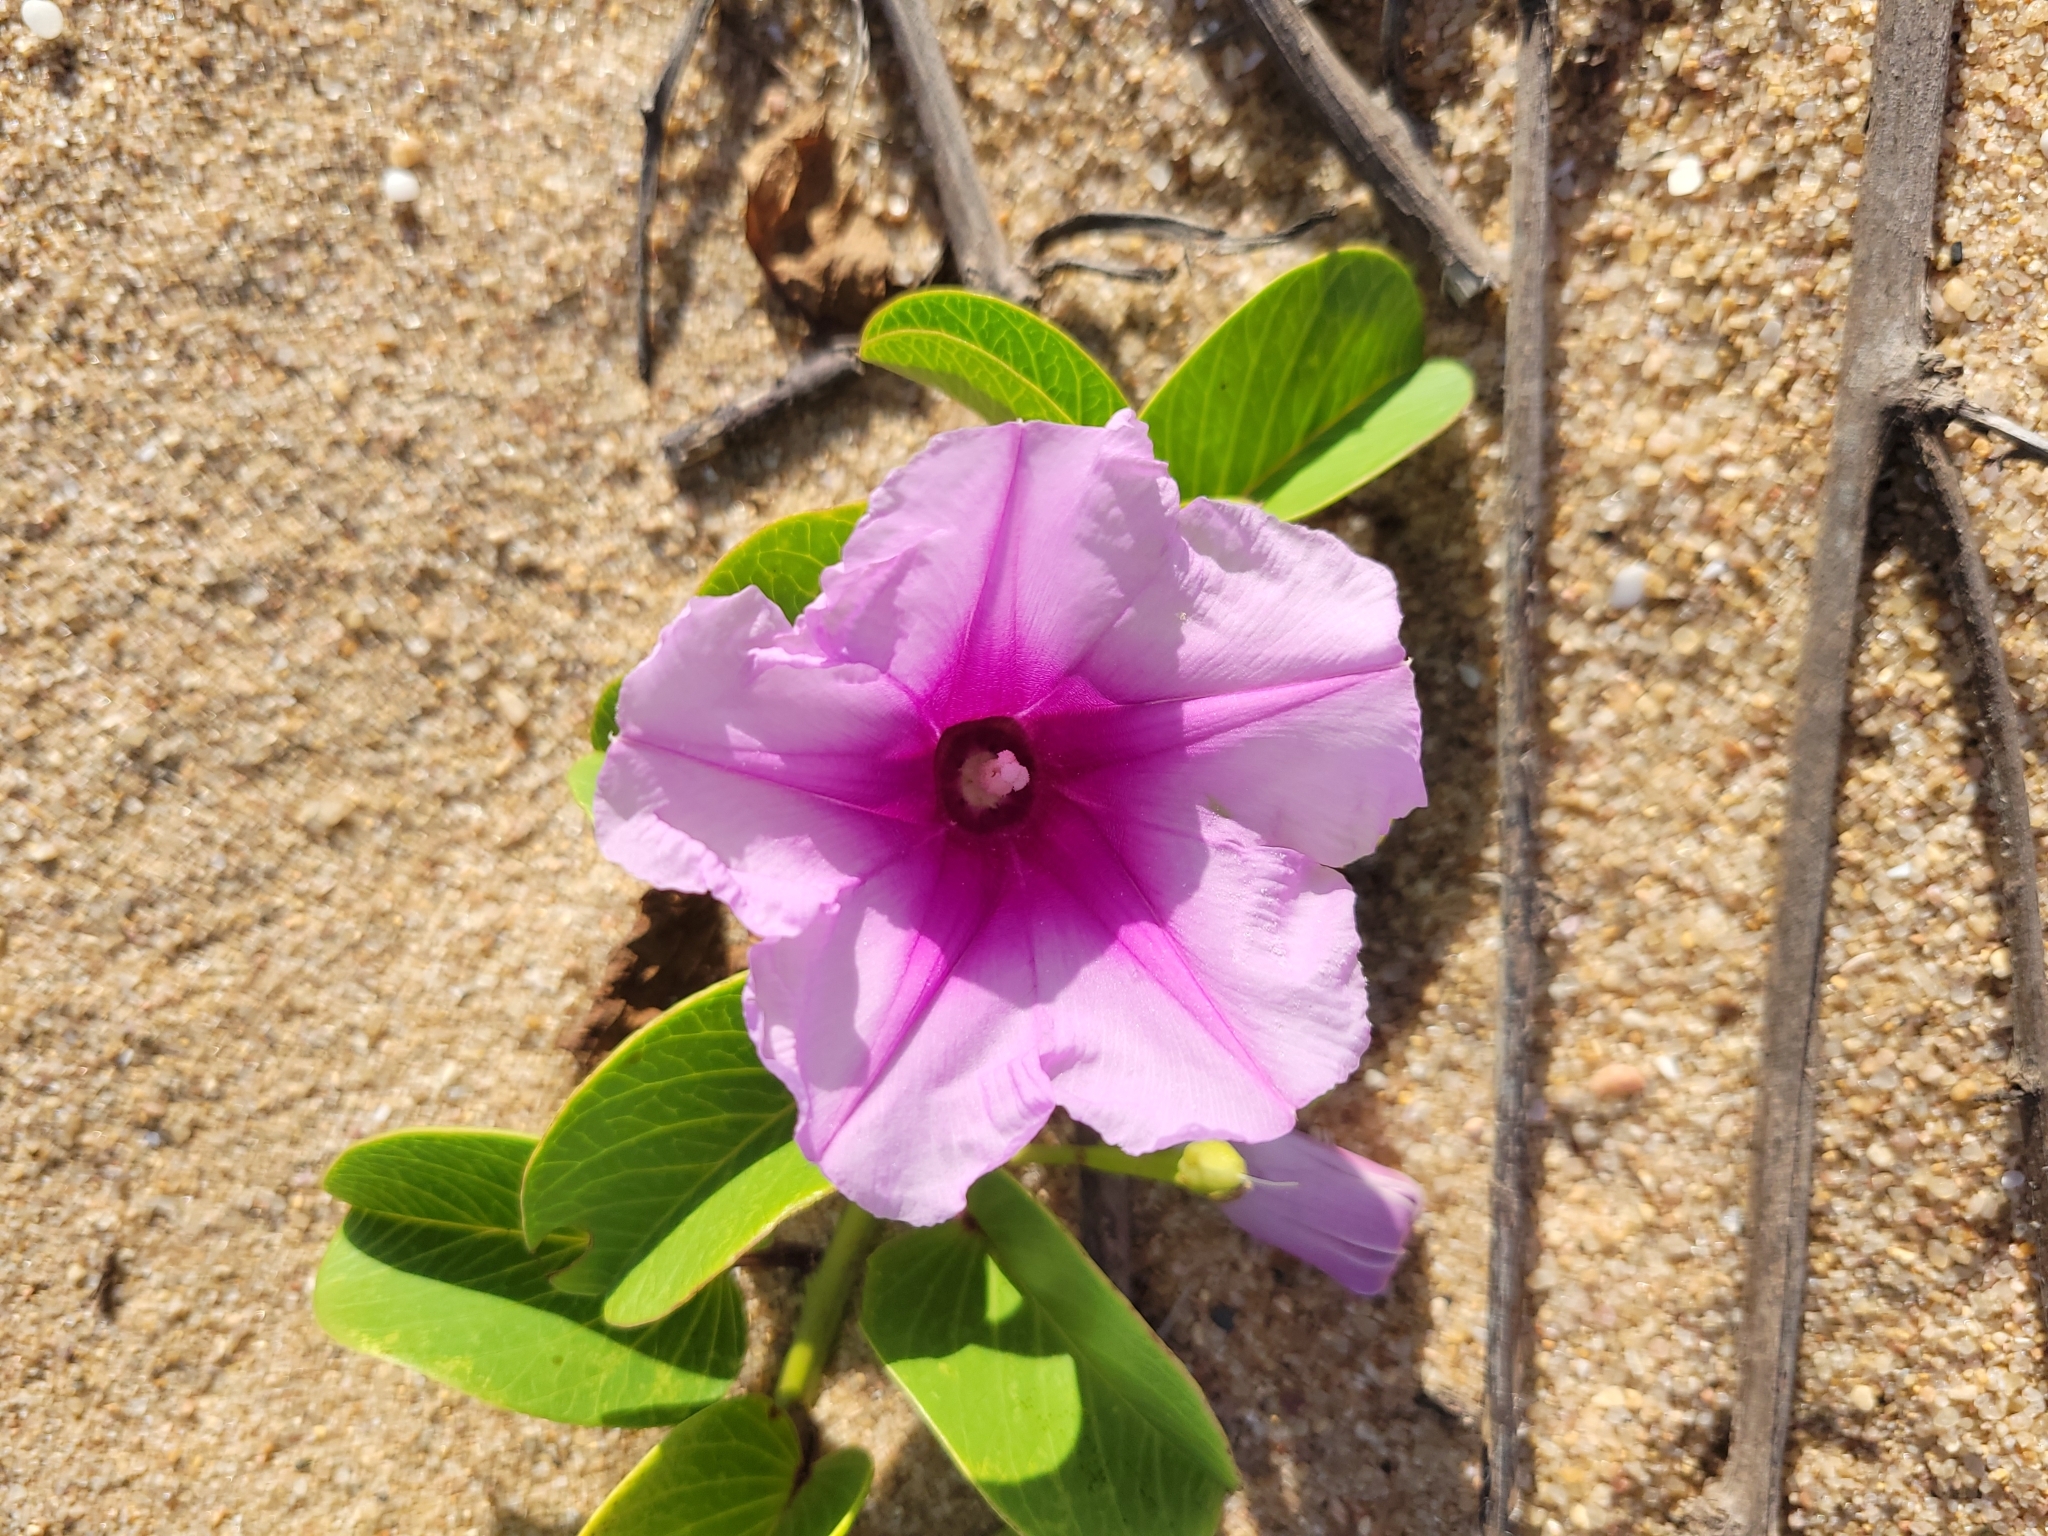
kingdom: Plantae
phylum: Tracheophyta
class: Magnoliopsida
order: Solanales
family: Convolvulaceae
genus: Ipomoea
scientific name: Ipomoea pes-caprae
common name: Beach morning glory
